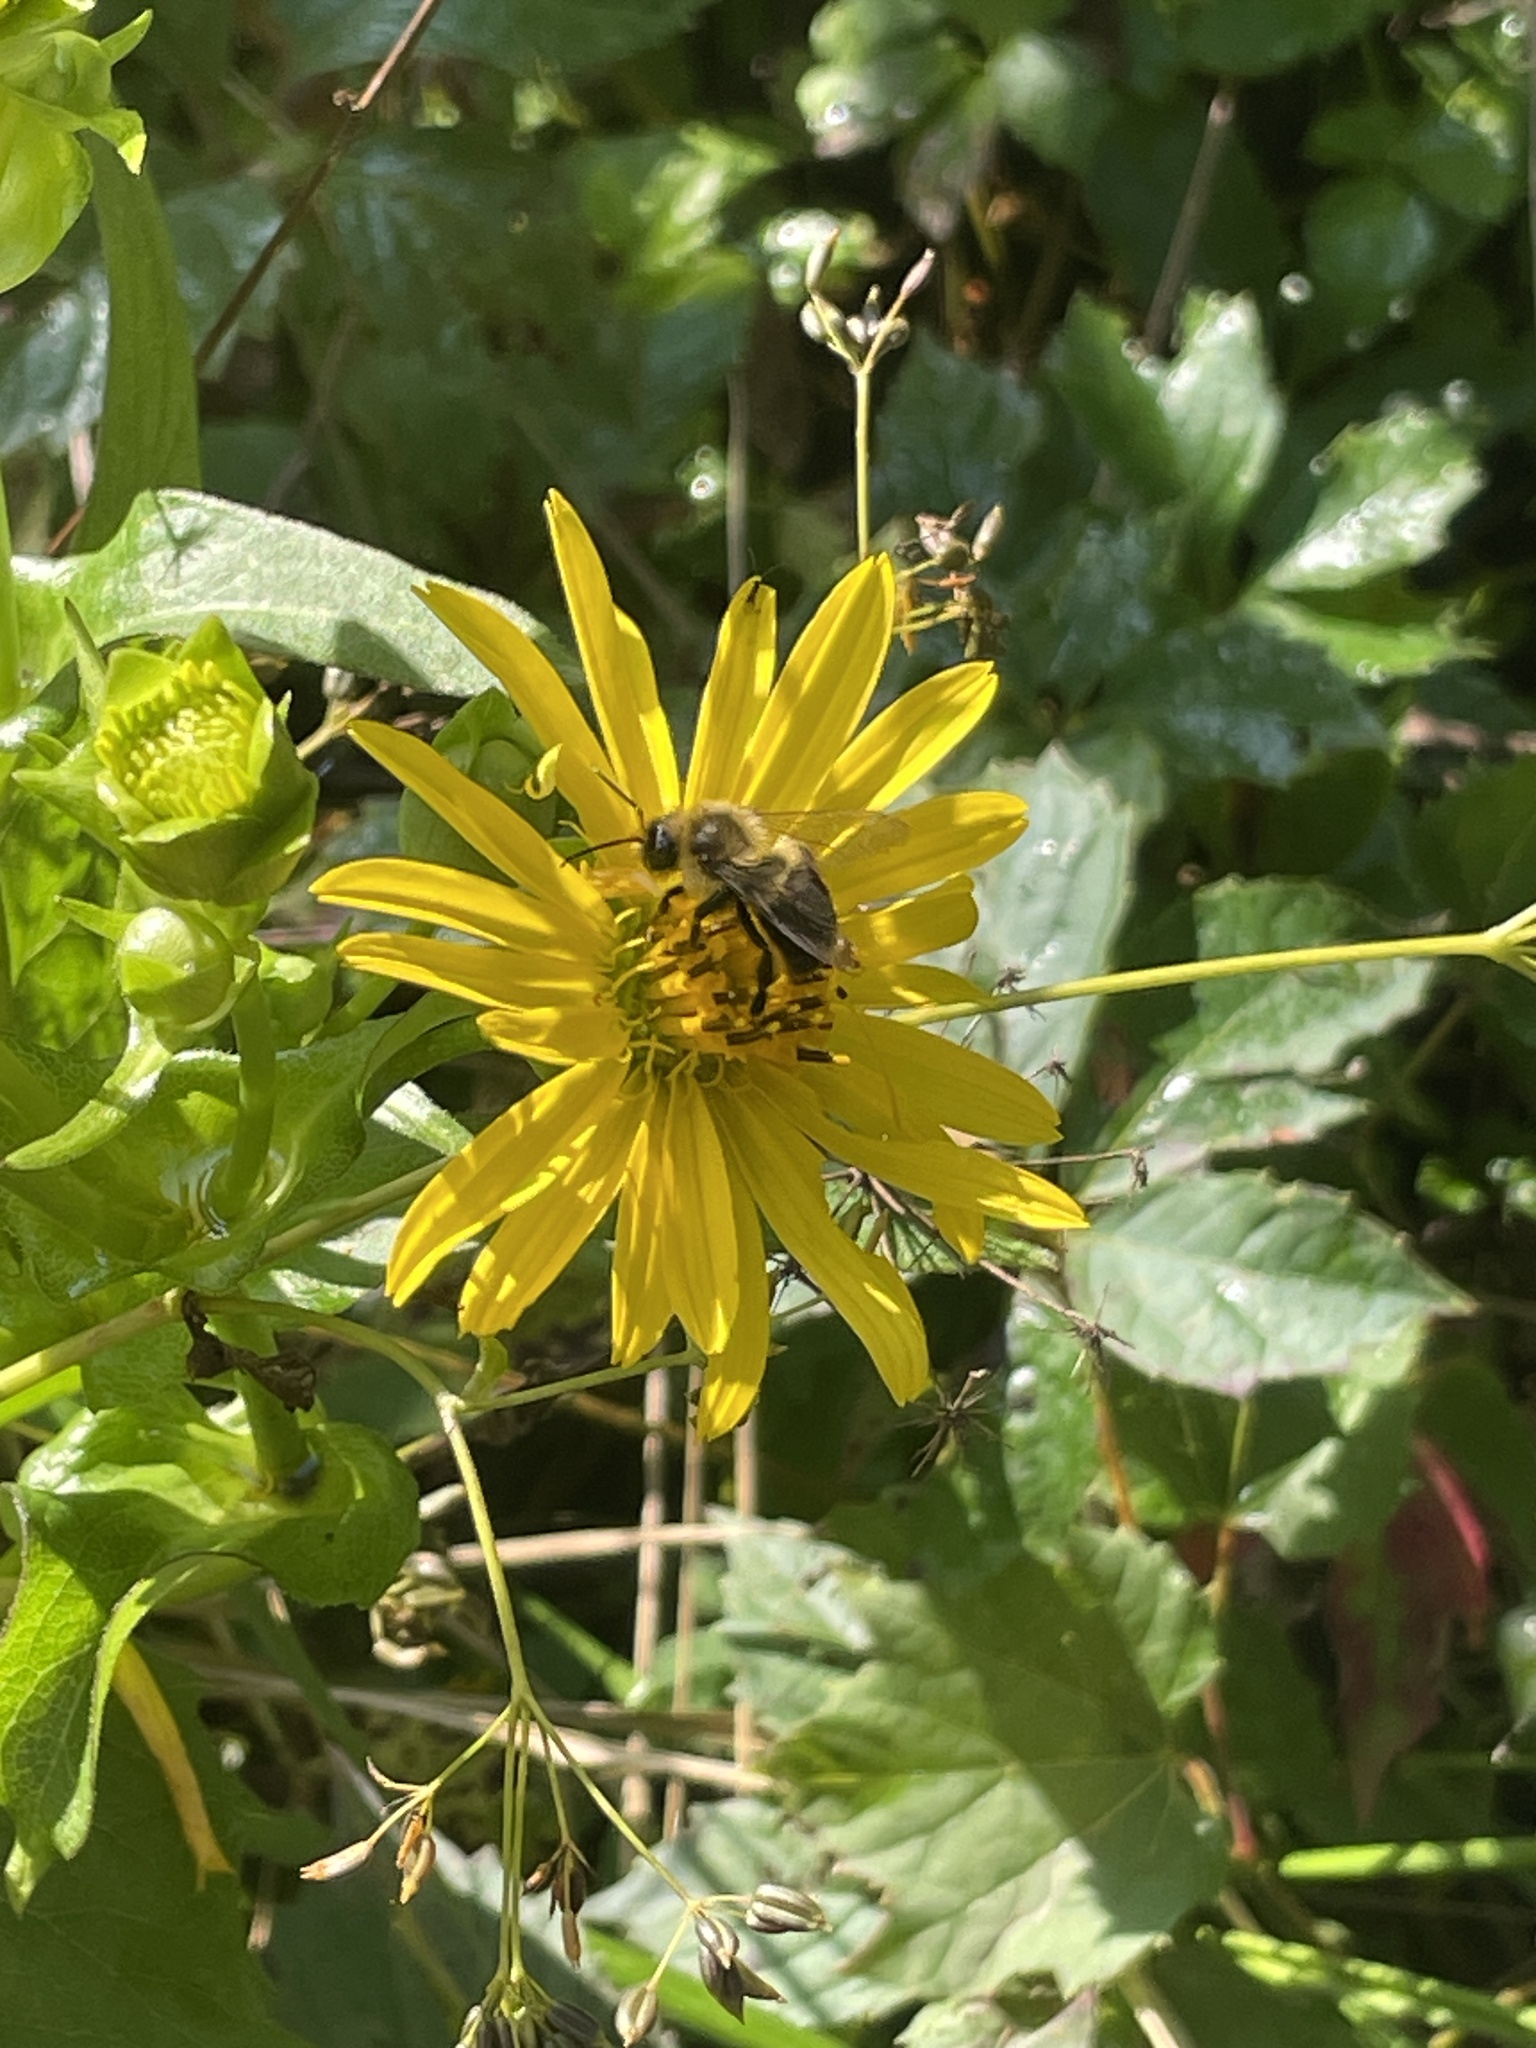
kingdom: Animalia
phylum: Arthropoda
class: Insecta
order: Hymenoptera
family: Apidae
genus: Bombus
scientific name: Bombus impatiens
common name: Common eastern bumble bee
